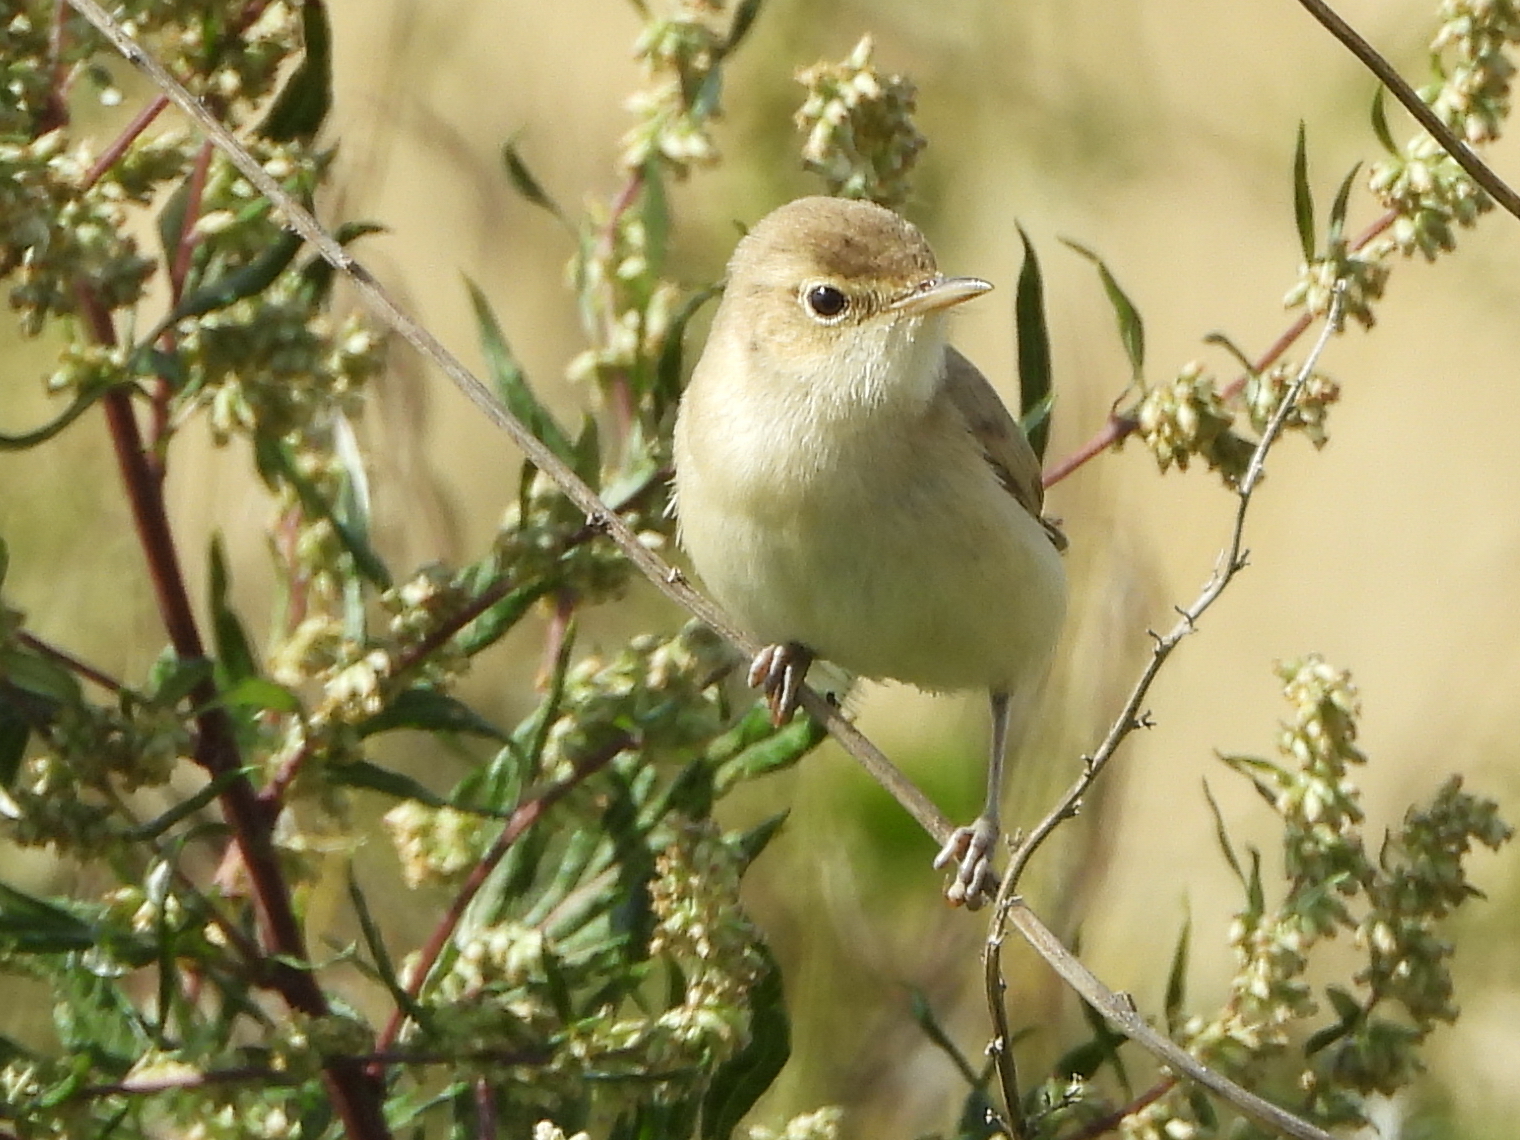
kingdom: Animalia
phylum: Chordata
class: Aves
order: Passeriformes
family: Acrocephalidae
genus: Iduna
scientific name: Iduna caligata
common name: Booted warbler
